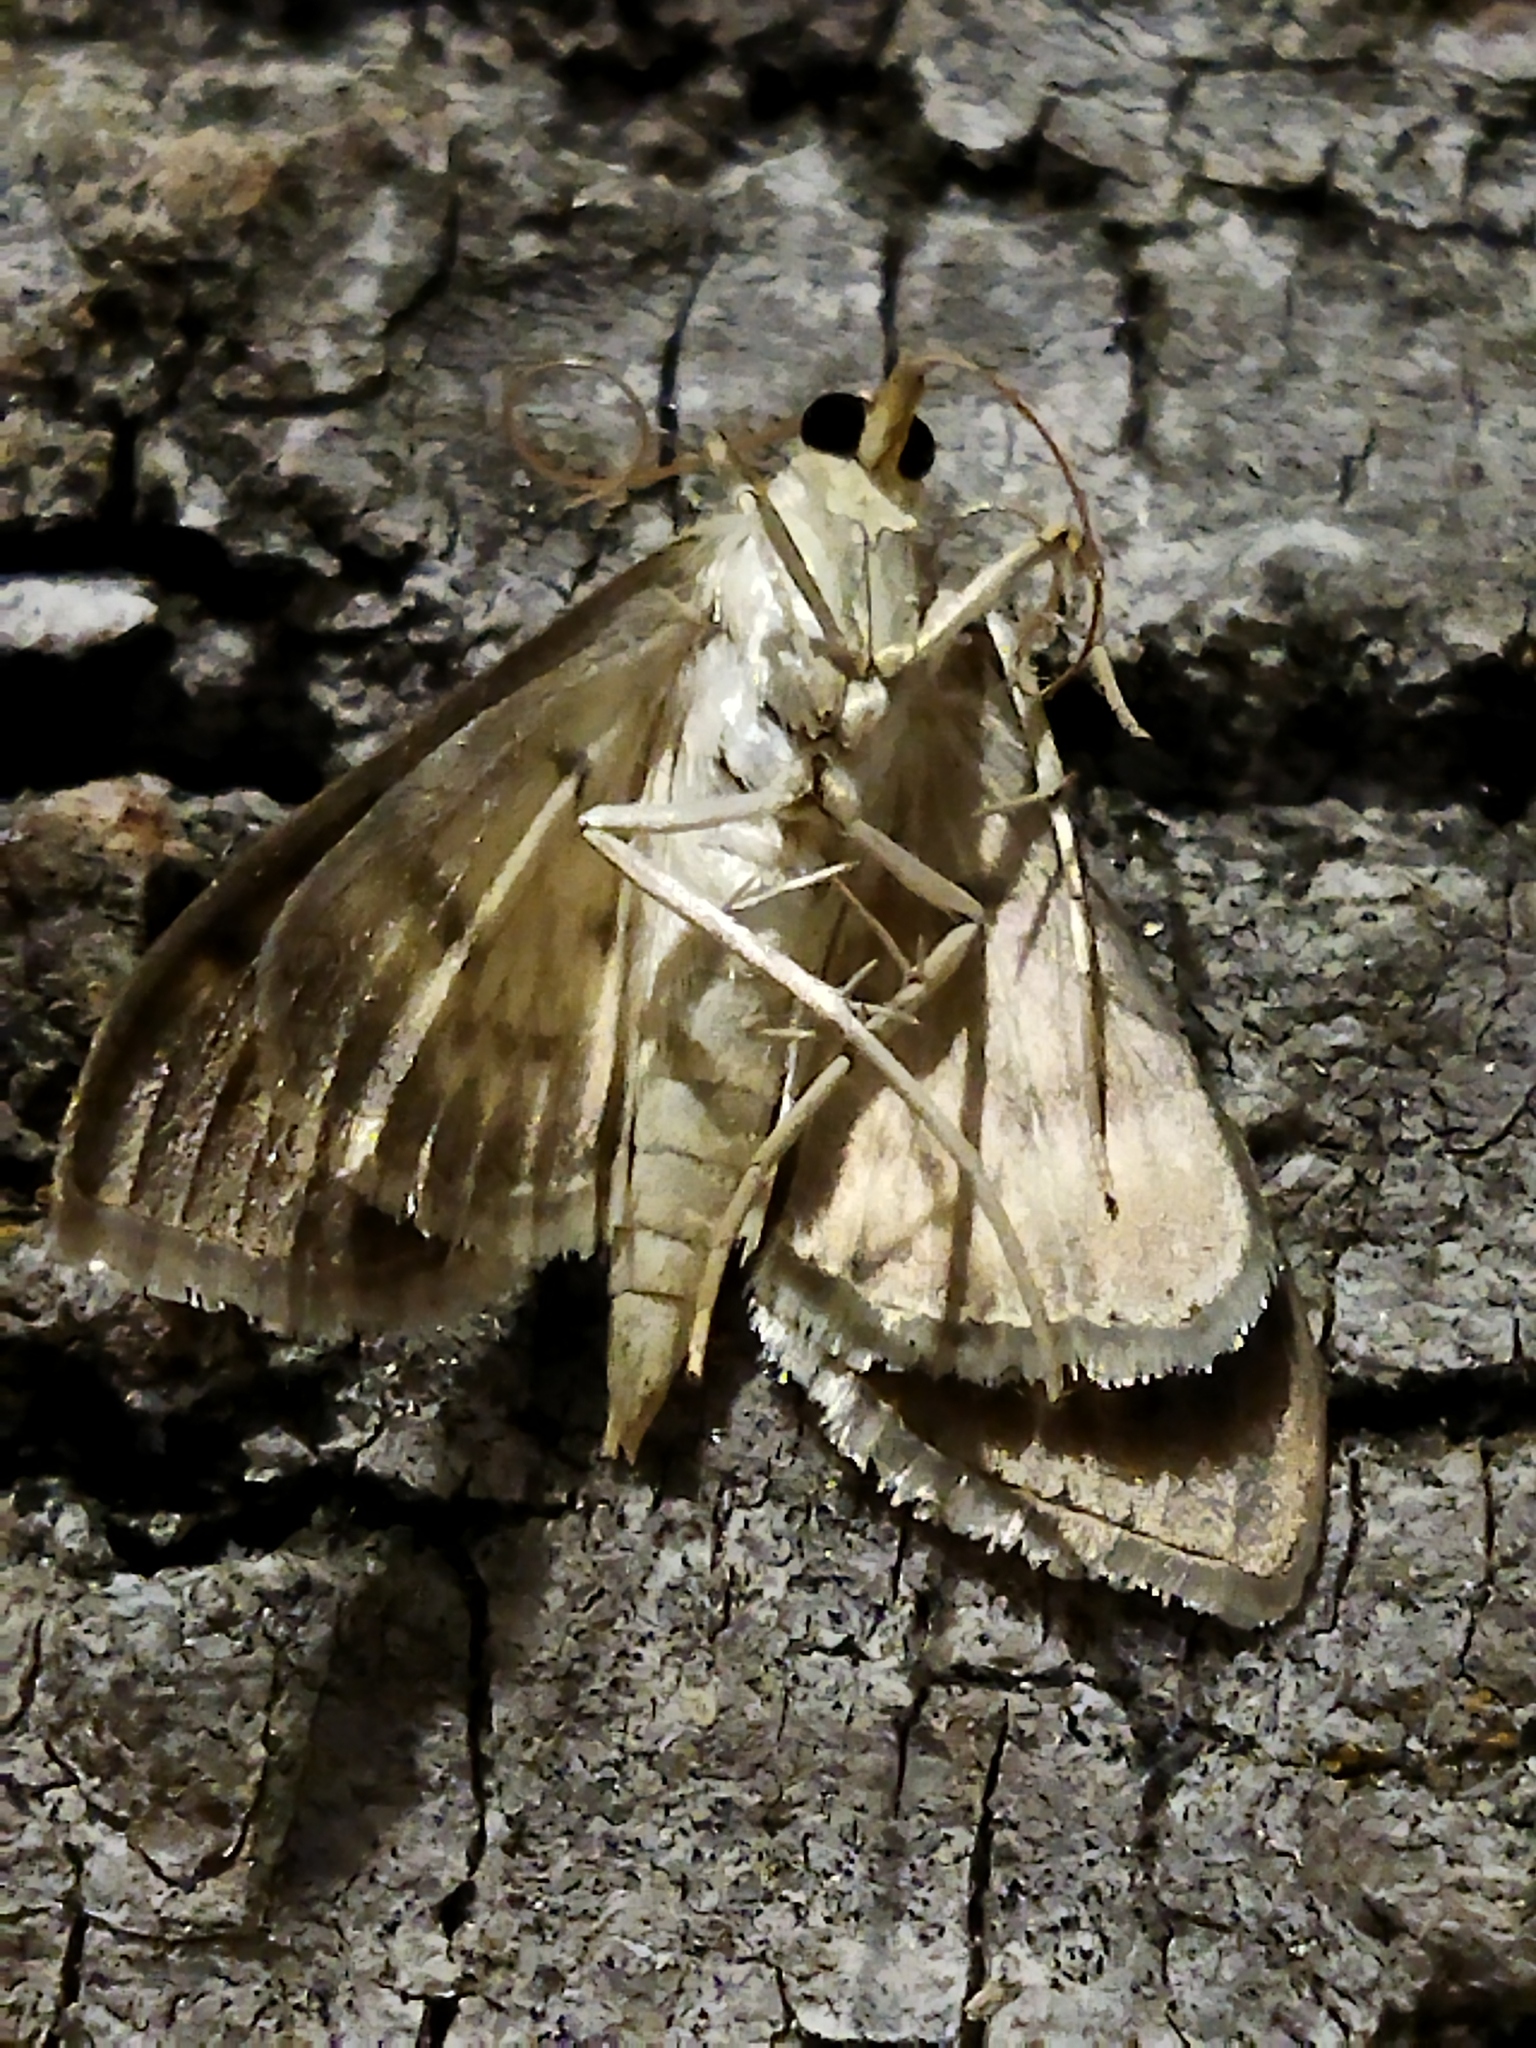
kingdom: Animalia
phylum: Arthropoda
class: Insecta
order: Lepidoptera
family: Crambidae
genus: Patania
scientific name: Patania ruralis
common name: Mother of pearl
